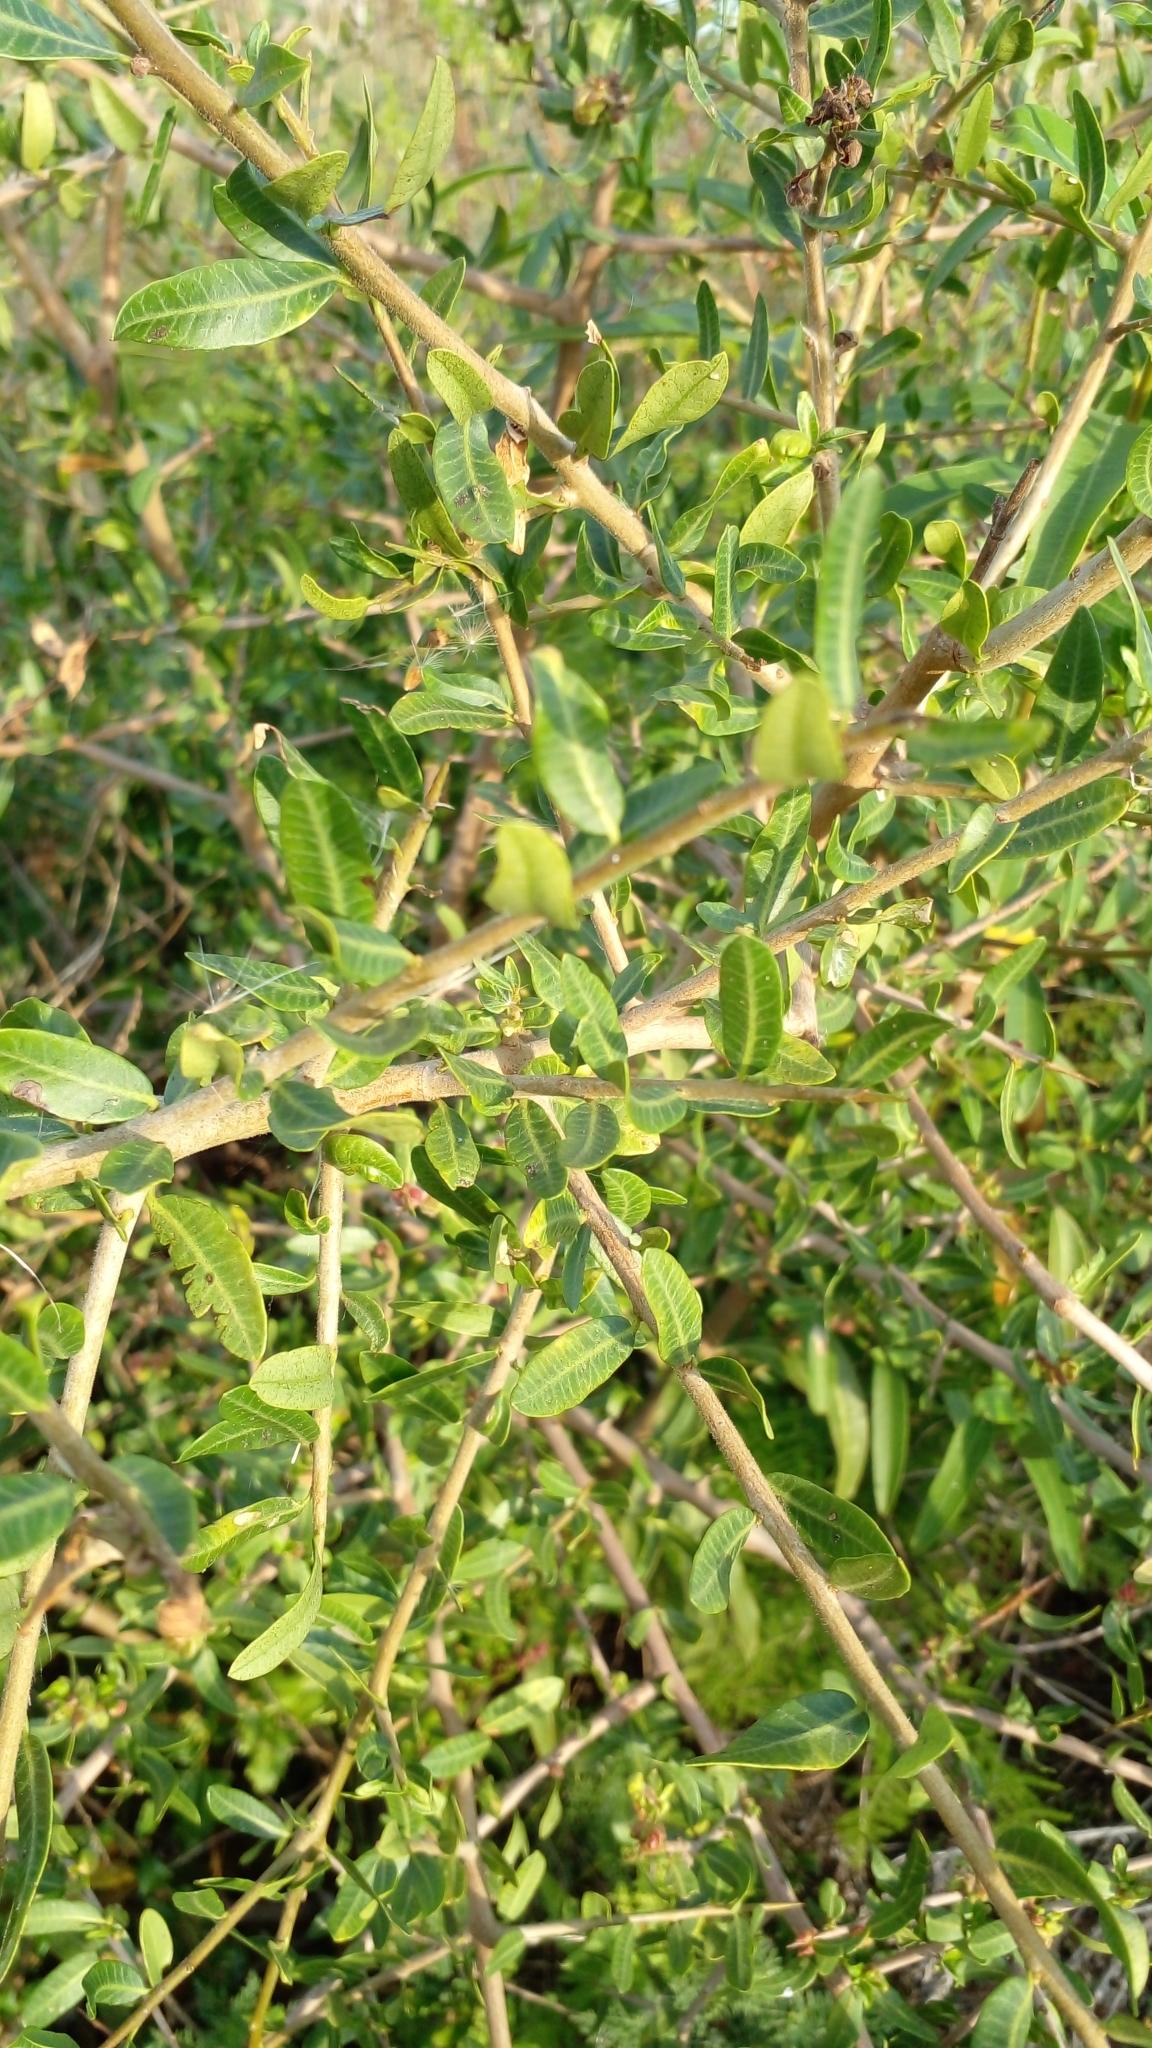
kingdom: Plantae
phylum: Tracheophyta
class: Magnoliopsida
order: Sapindales
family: Anacardiaceae
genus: Schinus
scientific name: Schinus longifolia
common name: Longleaf peppertree
